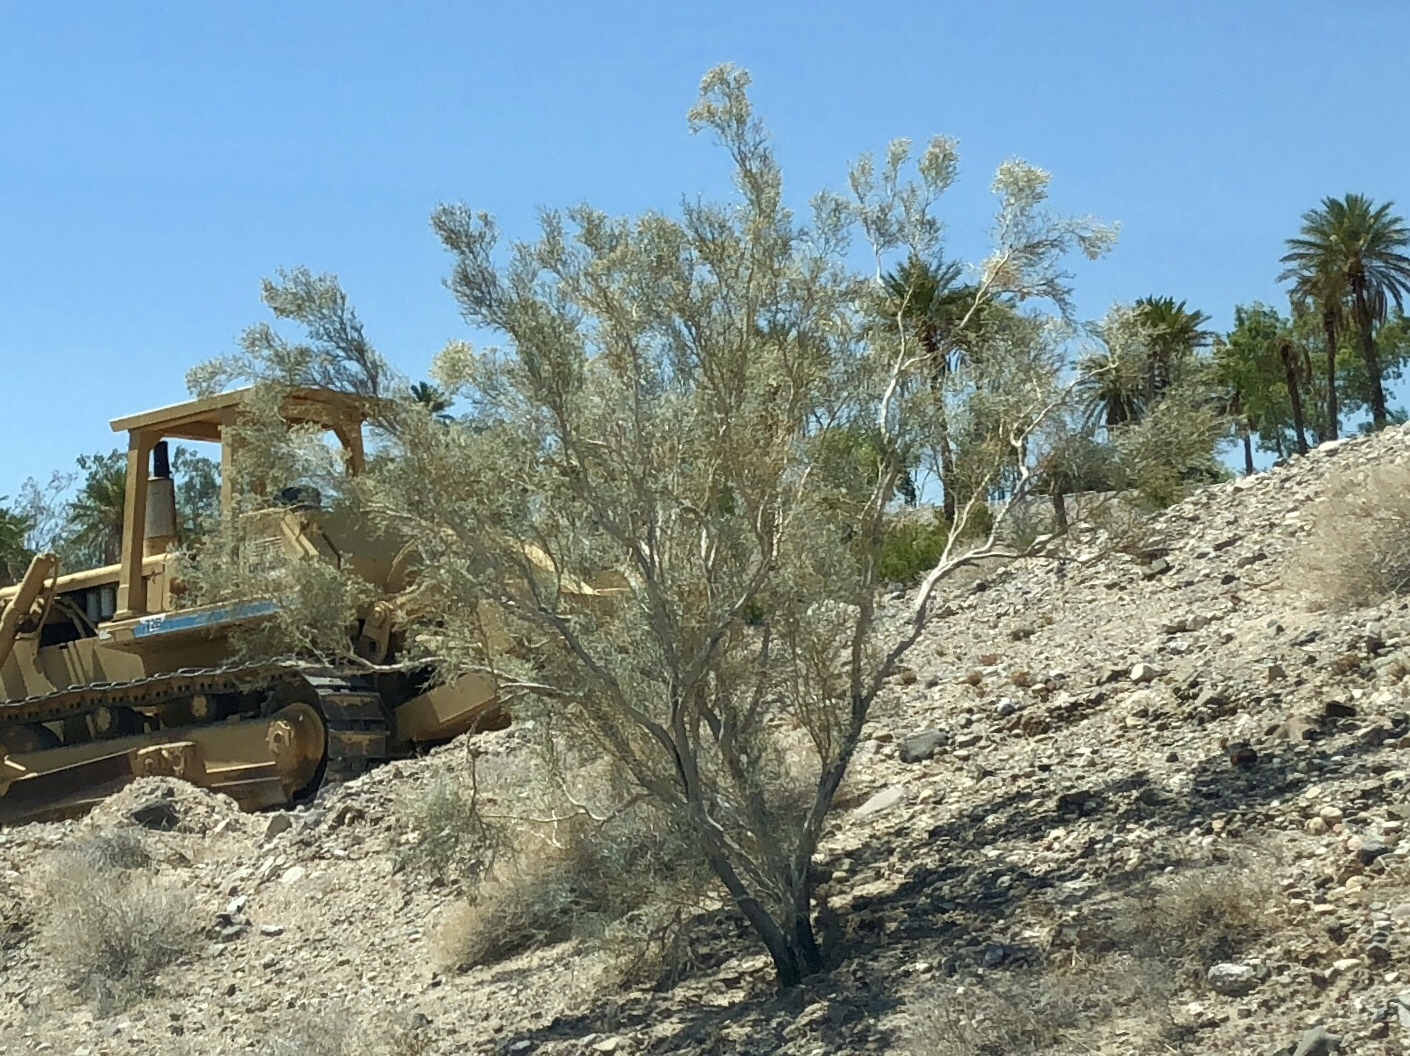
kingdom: Plantae
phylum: Tracheophyta
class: Magnoliopsida
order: Fabales
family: Fabaceae
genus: Psorothamnus
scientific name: Psorothamnus spinosus
